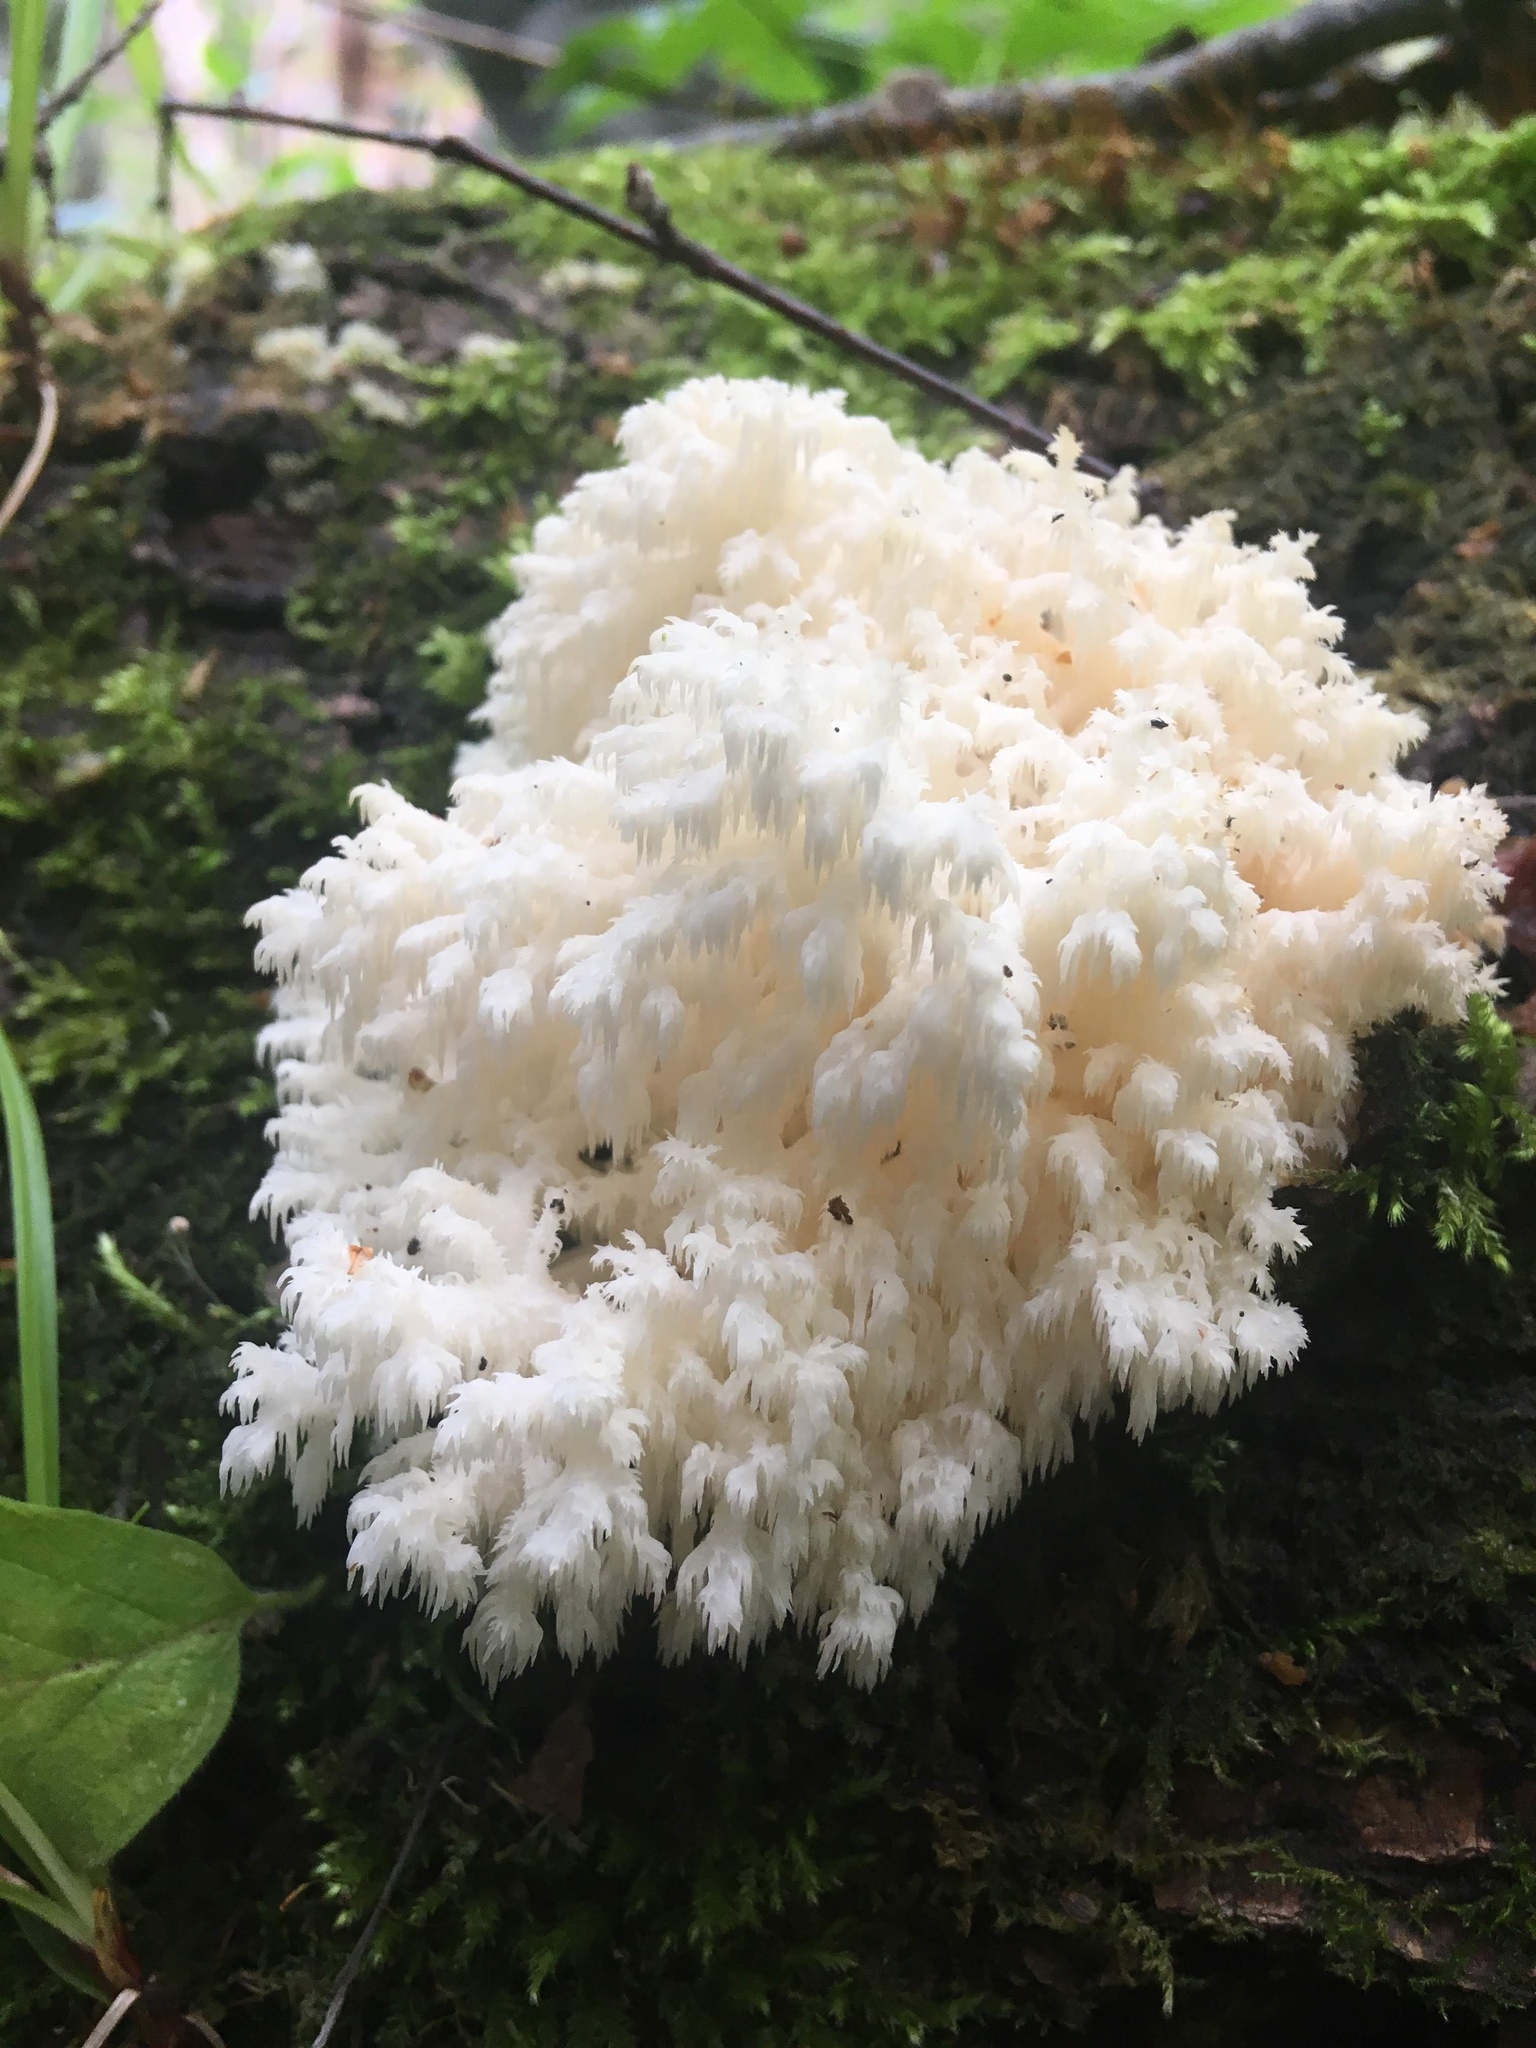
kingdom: Fungi
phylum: Basidiomycota
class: Agaricomycetes
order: Russulales
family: Hericiaceae
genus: Hericium
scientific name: Hericium coralloides
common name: Coral tooth
